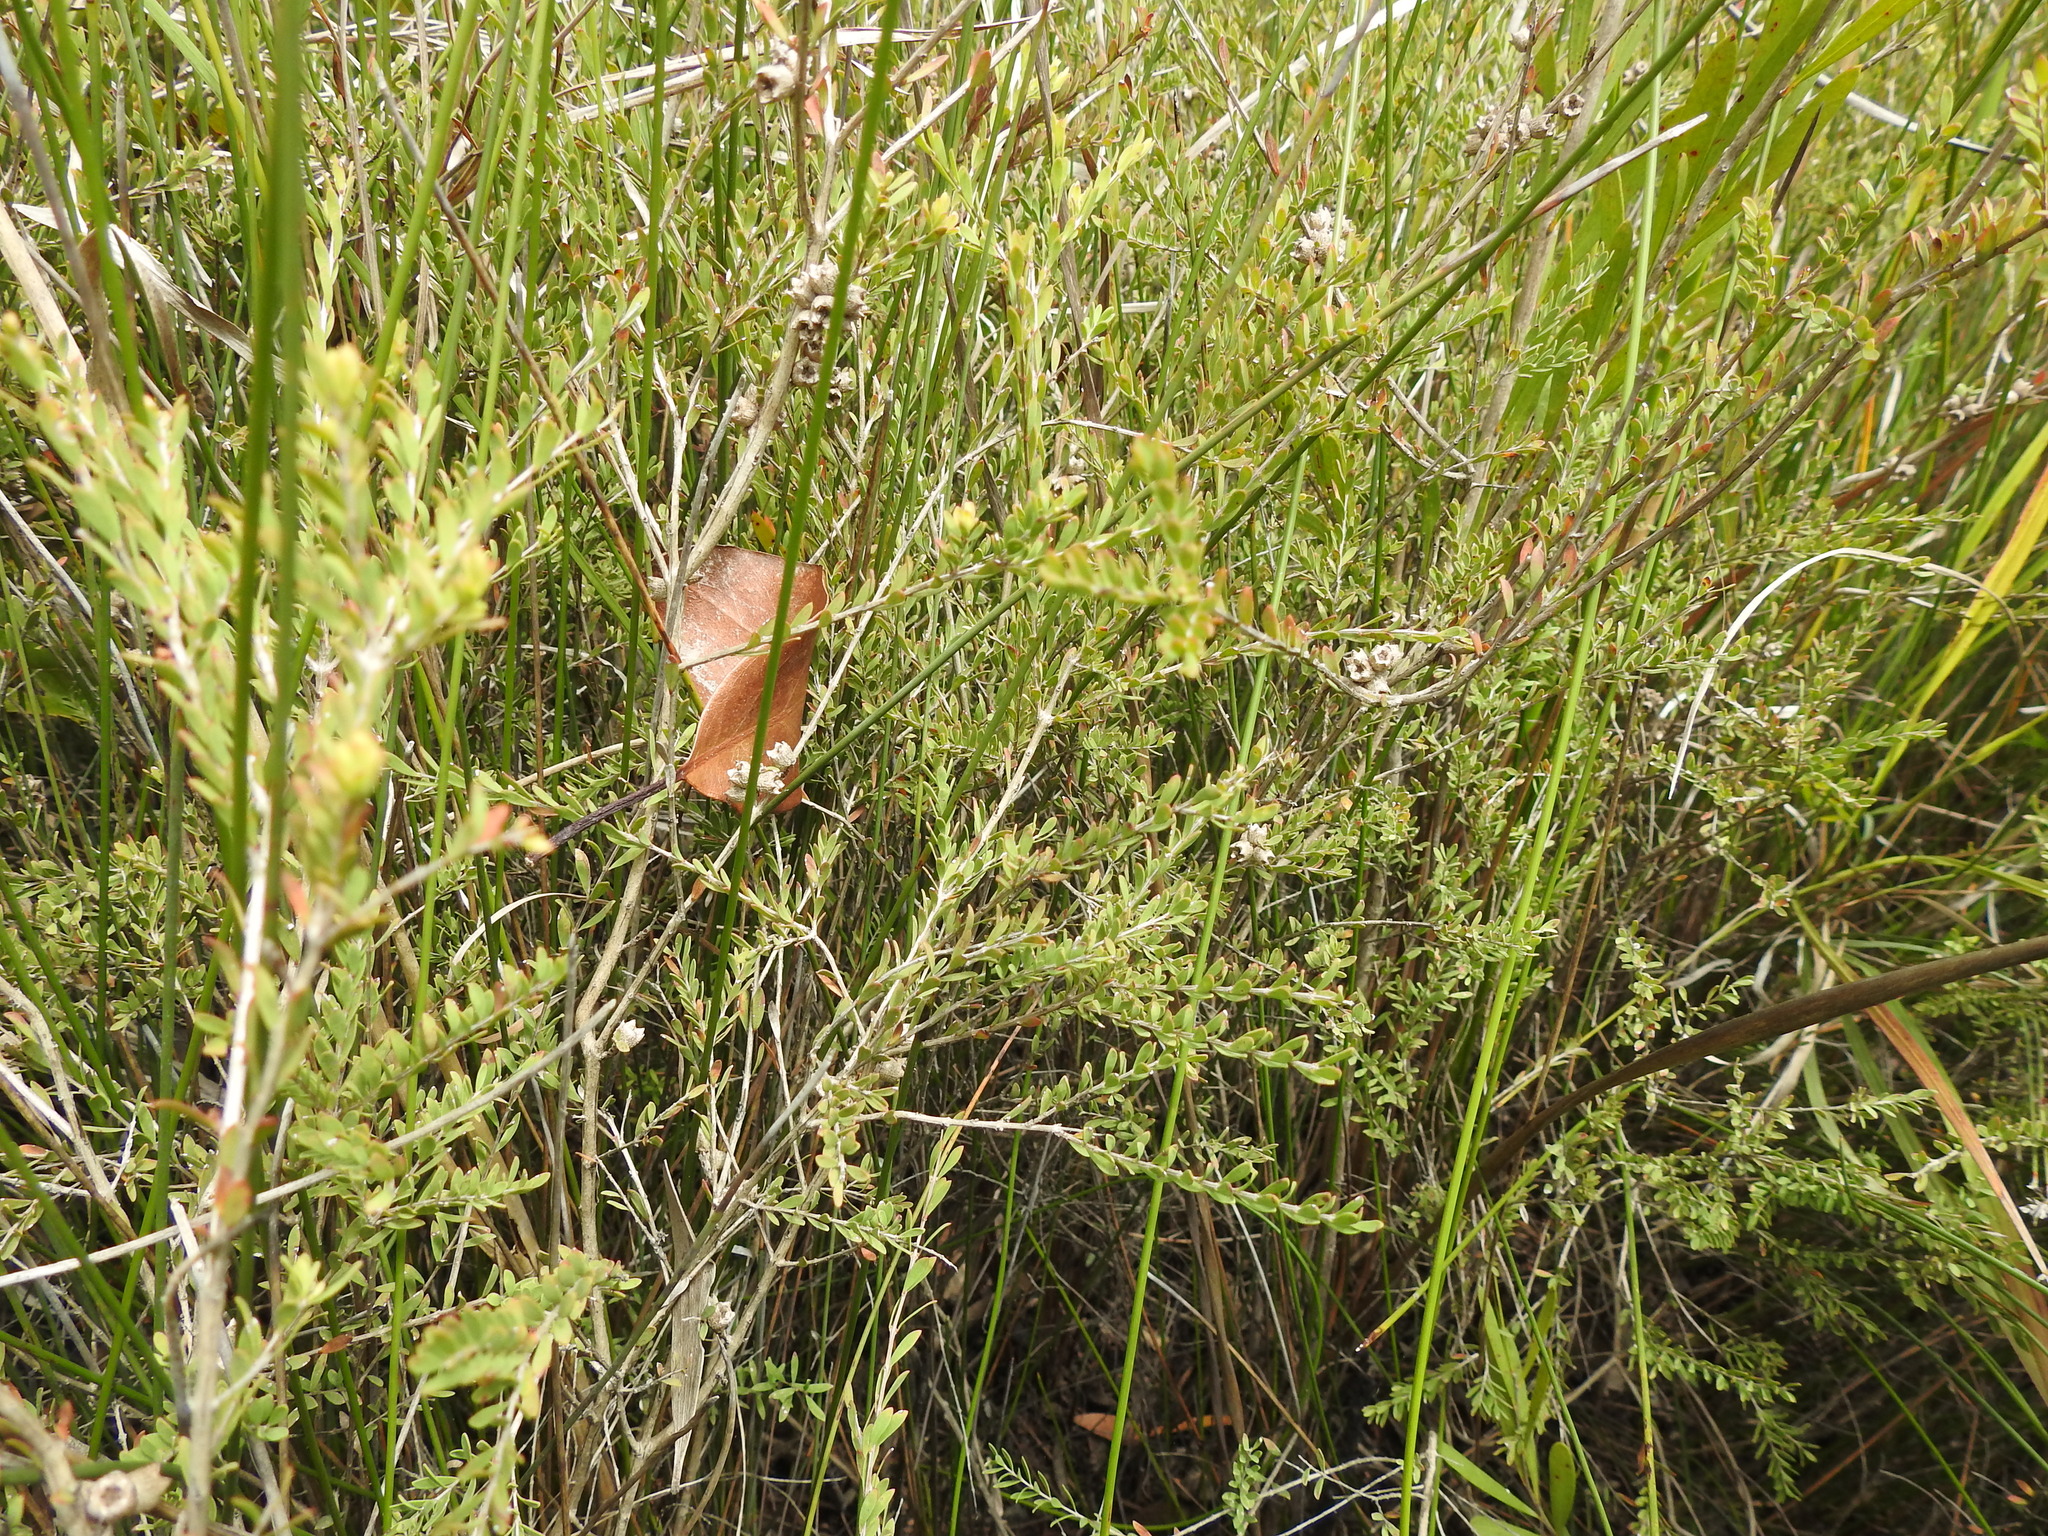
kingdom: Plantae
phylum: Tracheophyta
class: Magnoliopsida
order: Myrtales
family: Myrtaceae
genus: Melaleuca
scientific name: Melaleuca thymifolia
